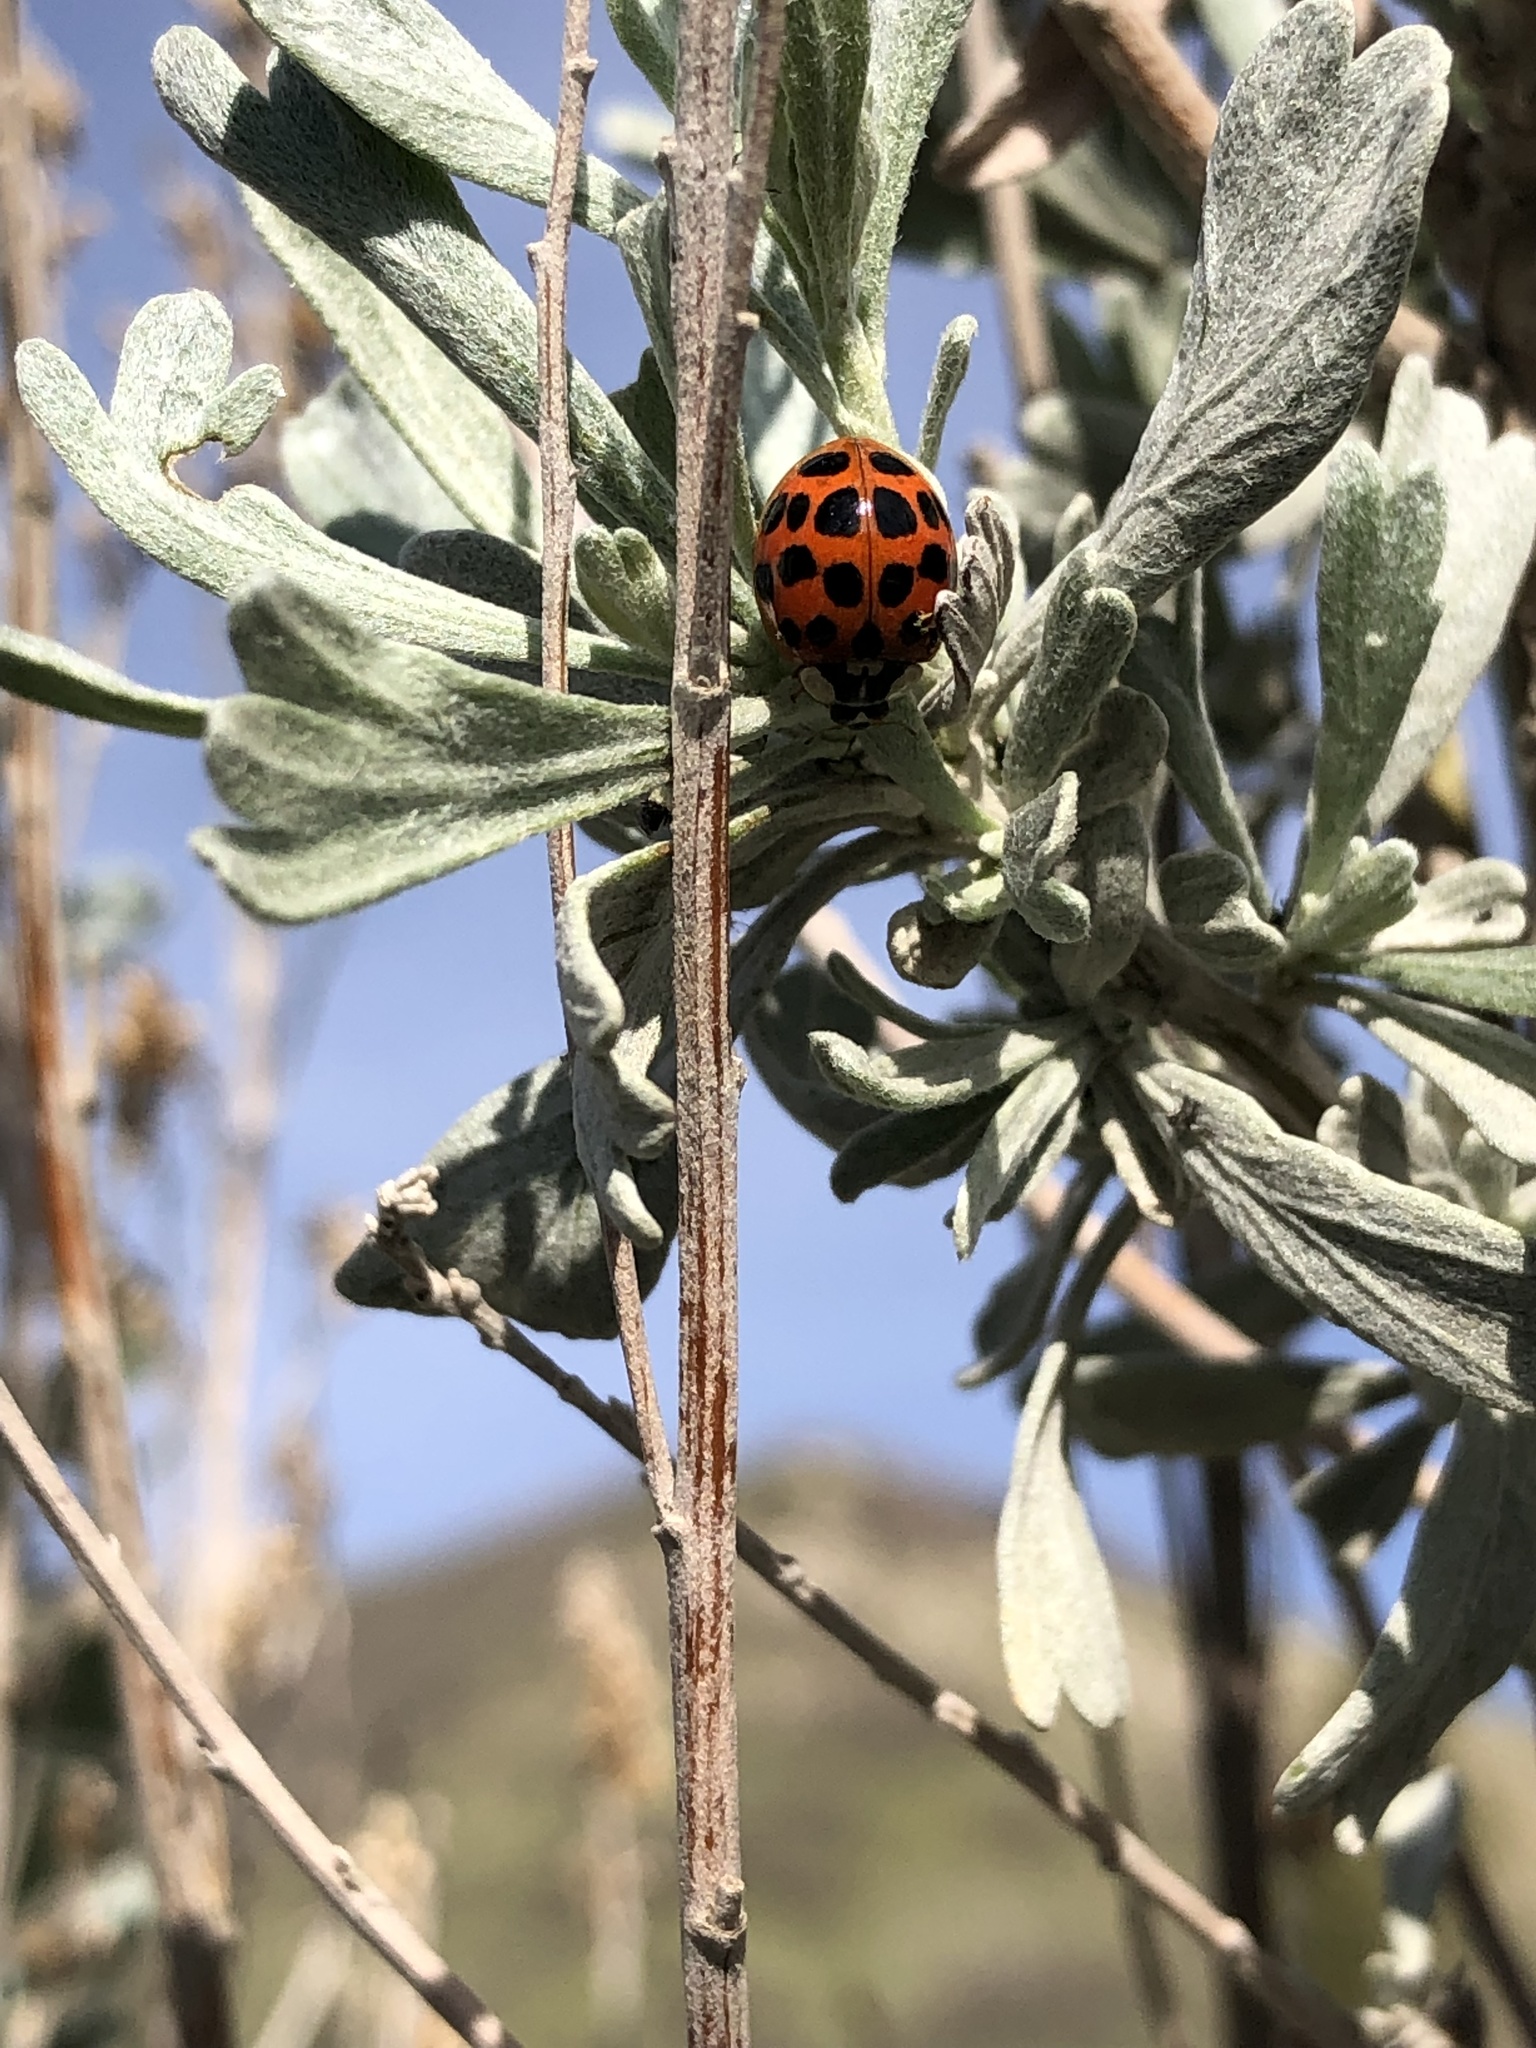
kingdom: Animalia
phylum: Arthropoda
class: Insecta
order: Coleoptera
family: Coccinellidae
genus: Harmonia
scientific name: Harmonia axyridis
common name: Harlequin ladybird
